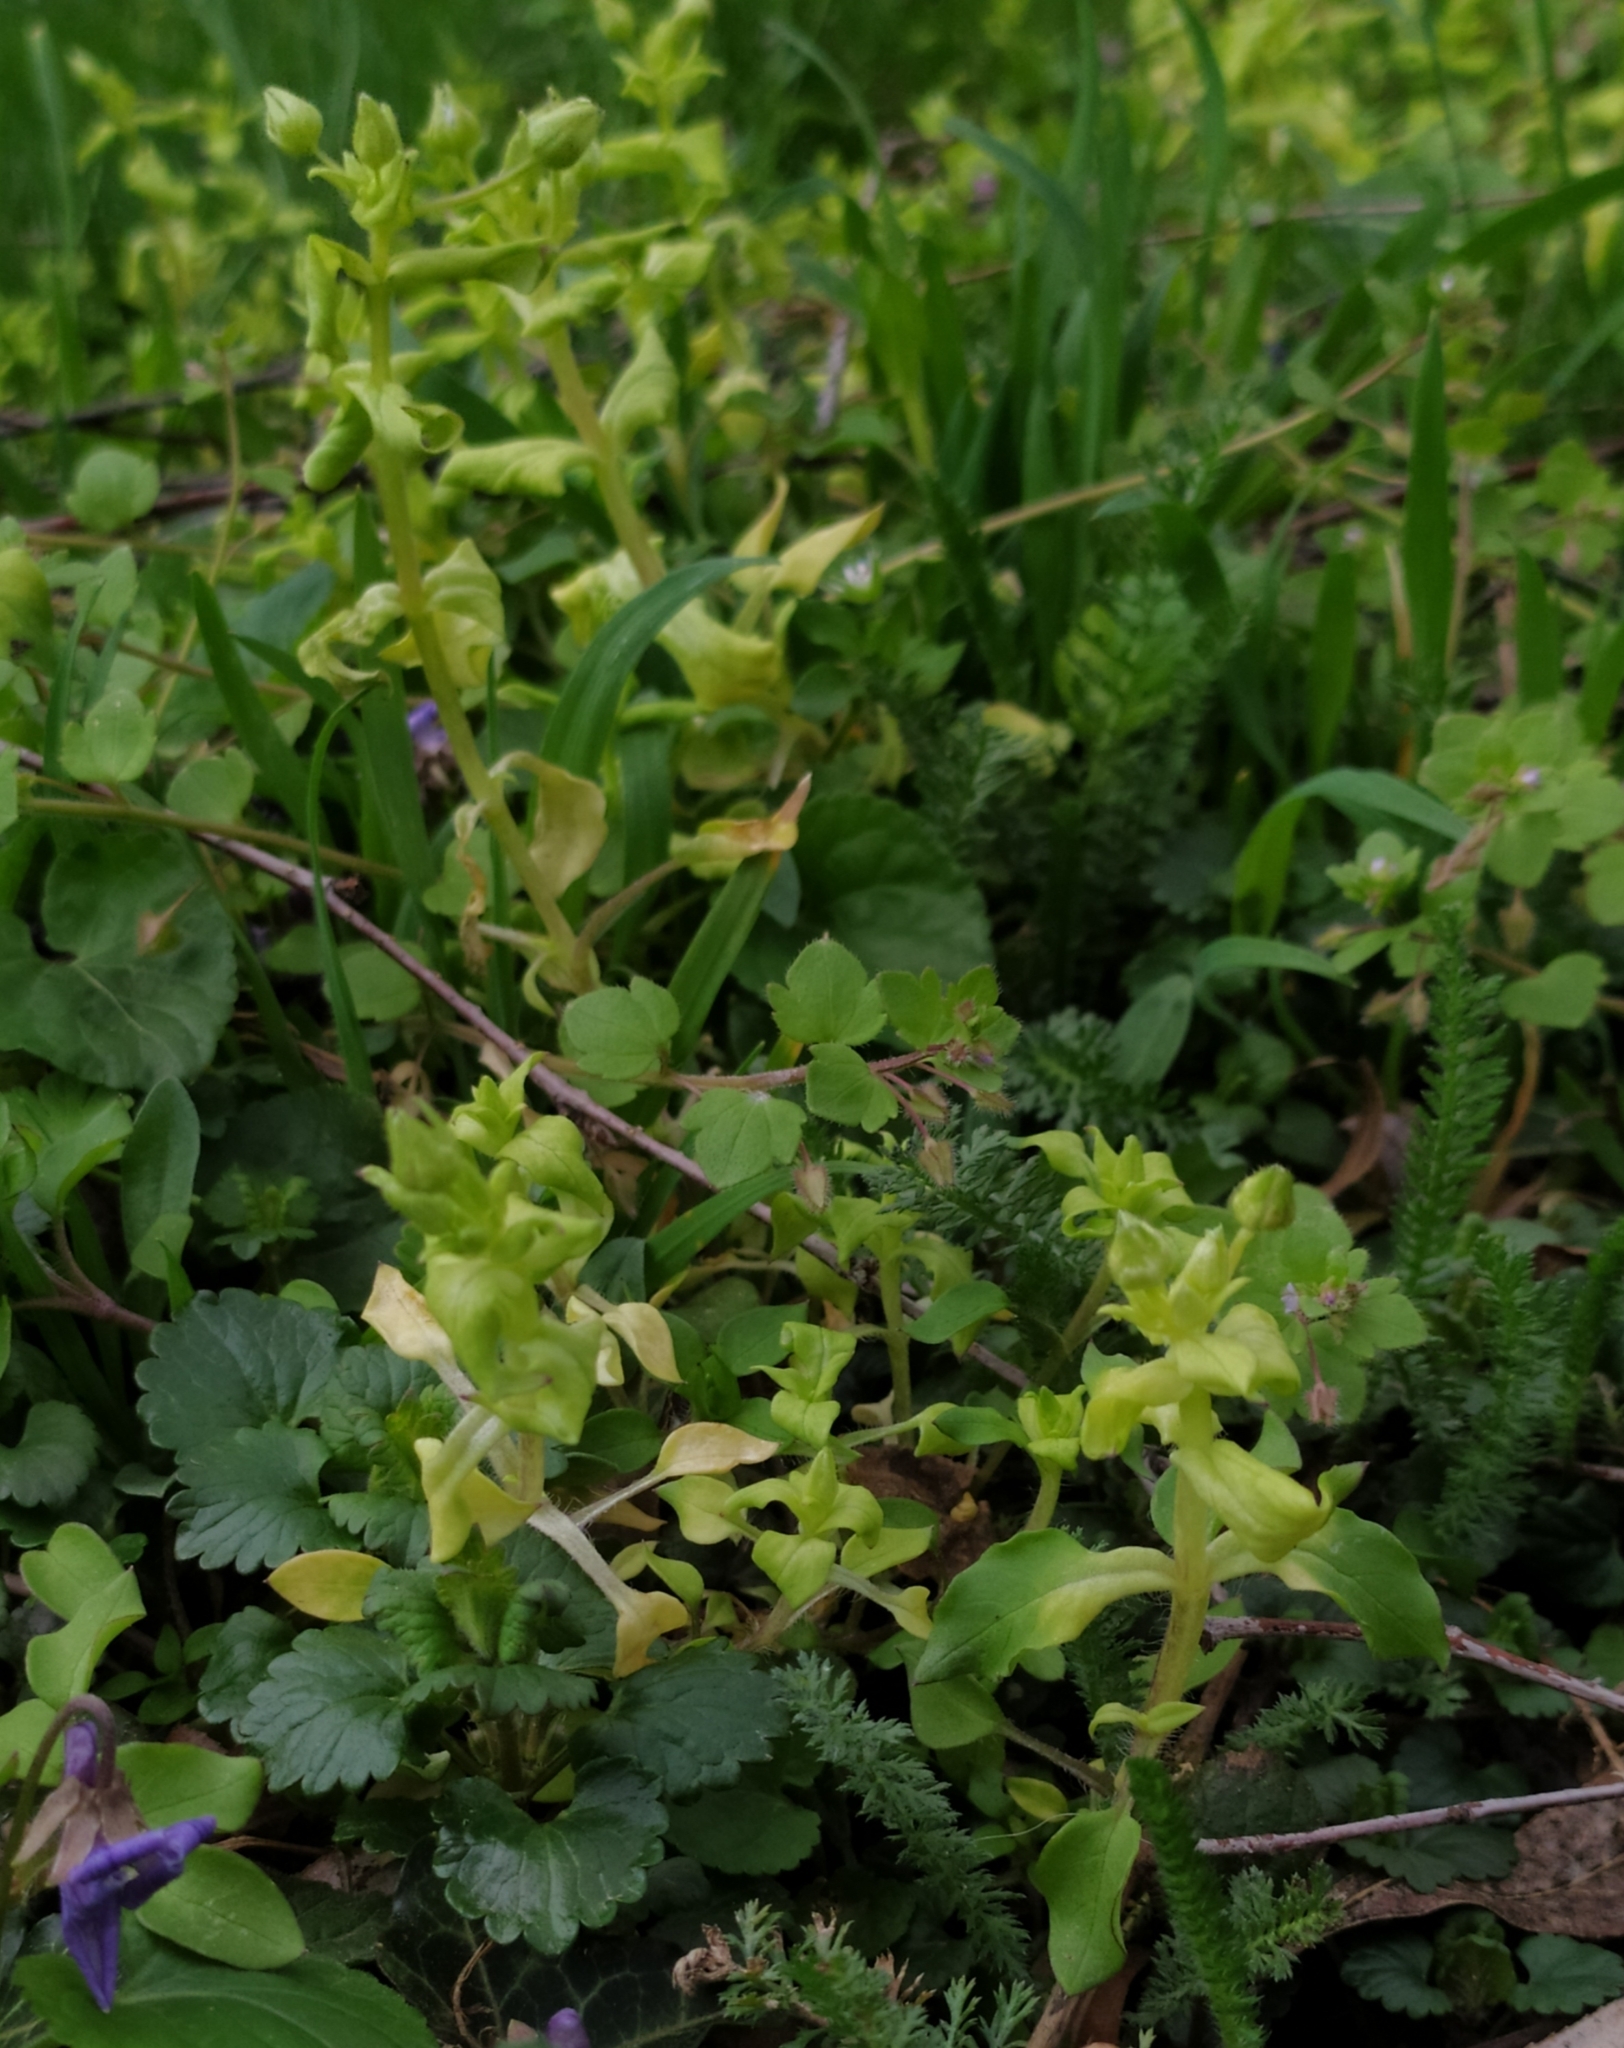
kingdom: Chromista
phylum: Oomycota
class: Peronosporea
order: Peronosporales
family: Peronosporaceae
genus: Peronospora
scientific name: Peronospora alsinearum
